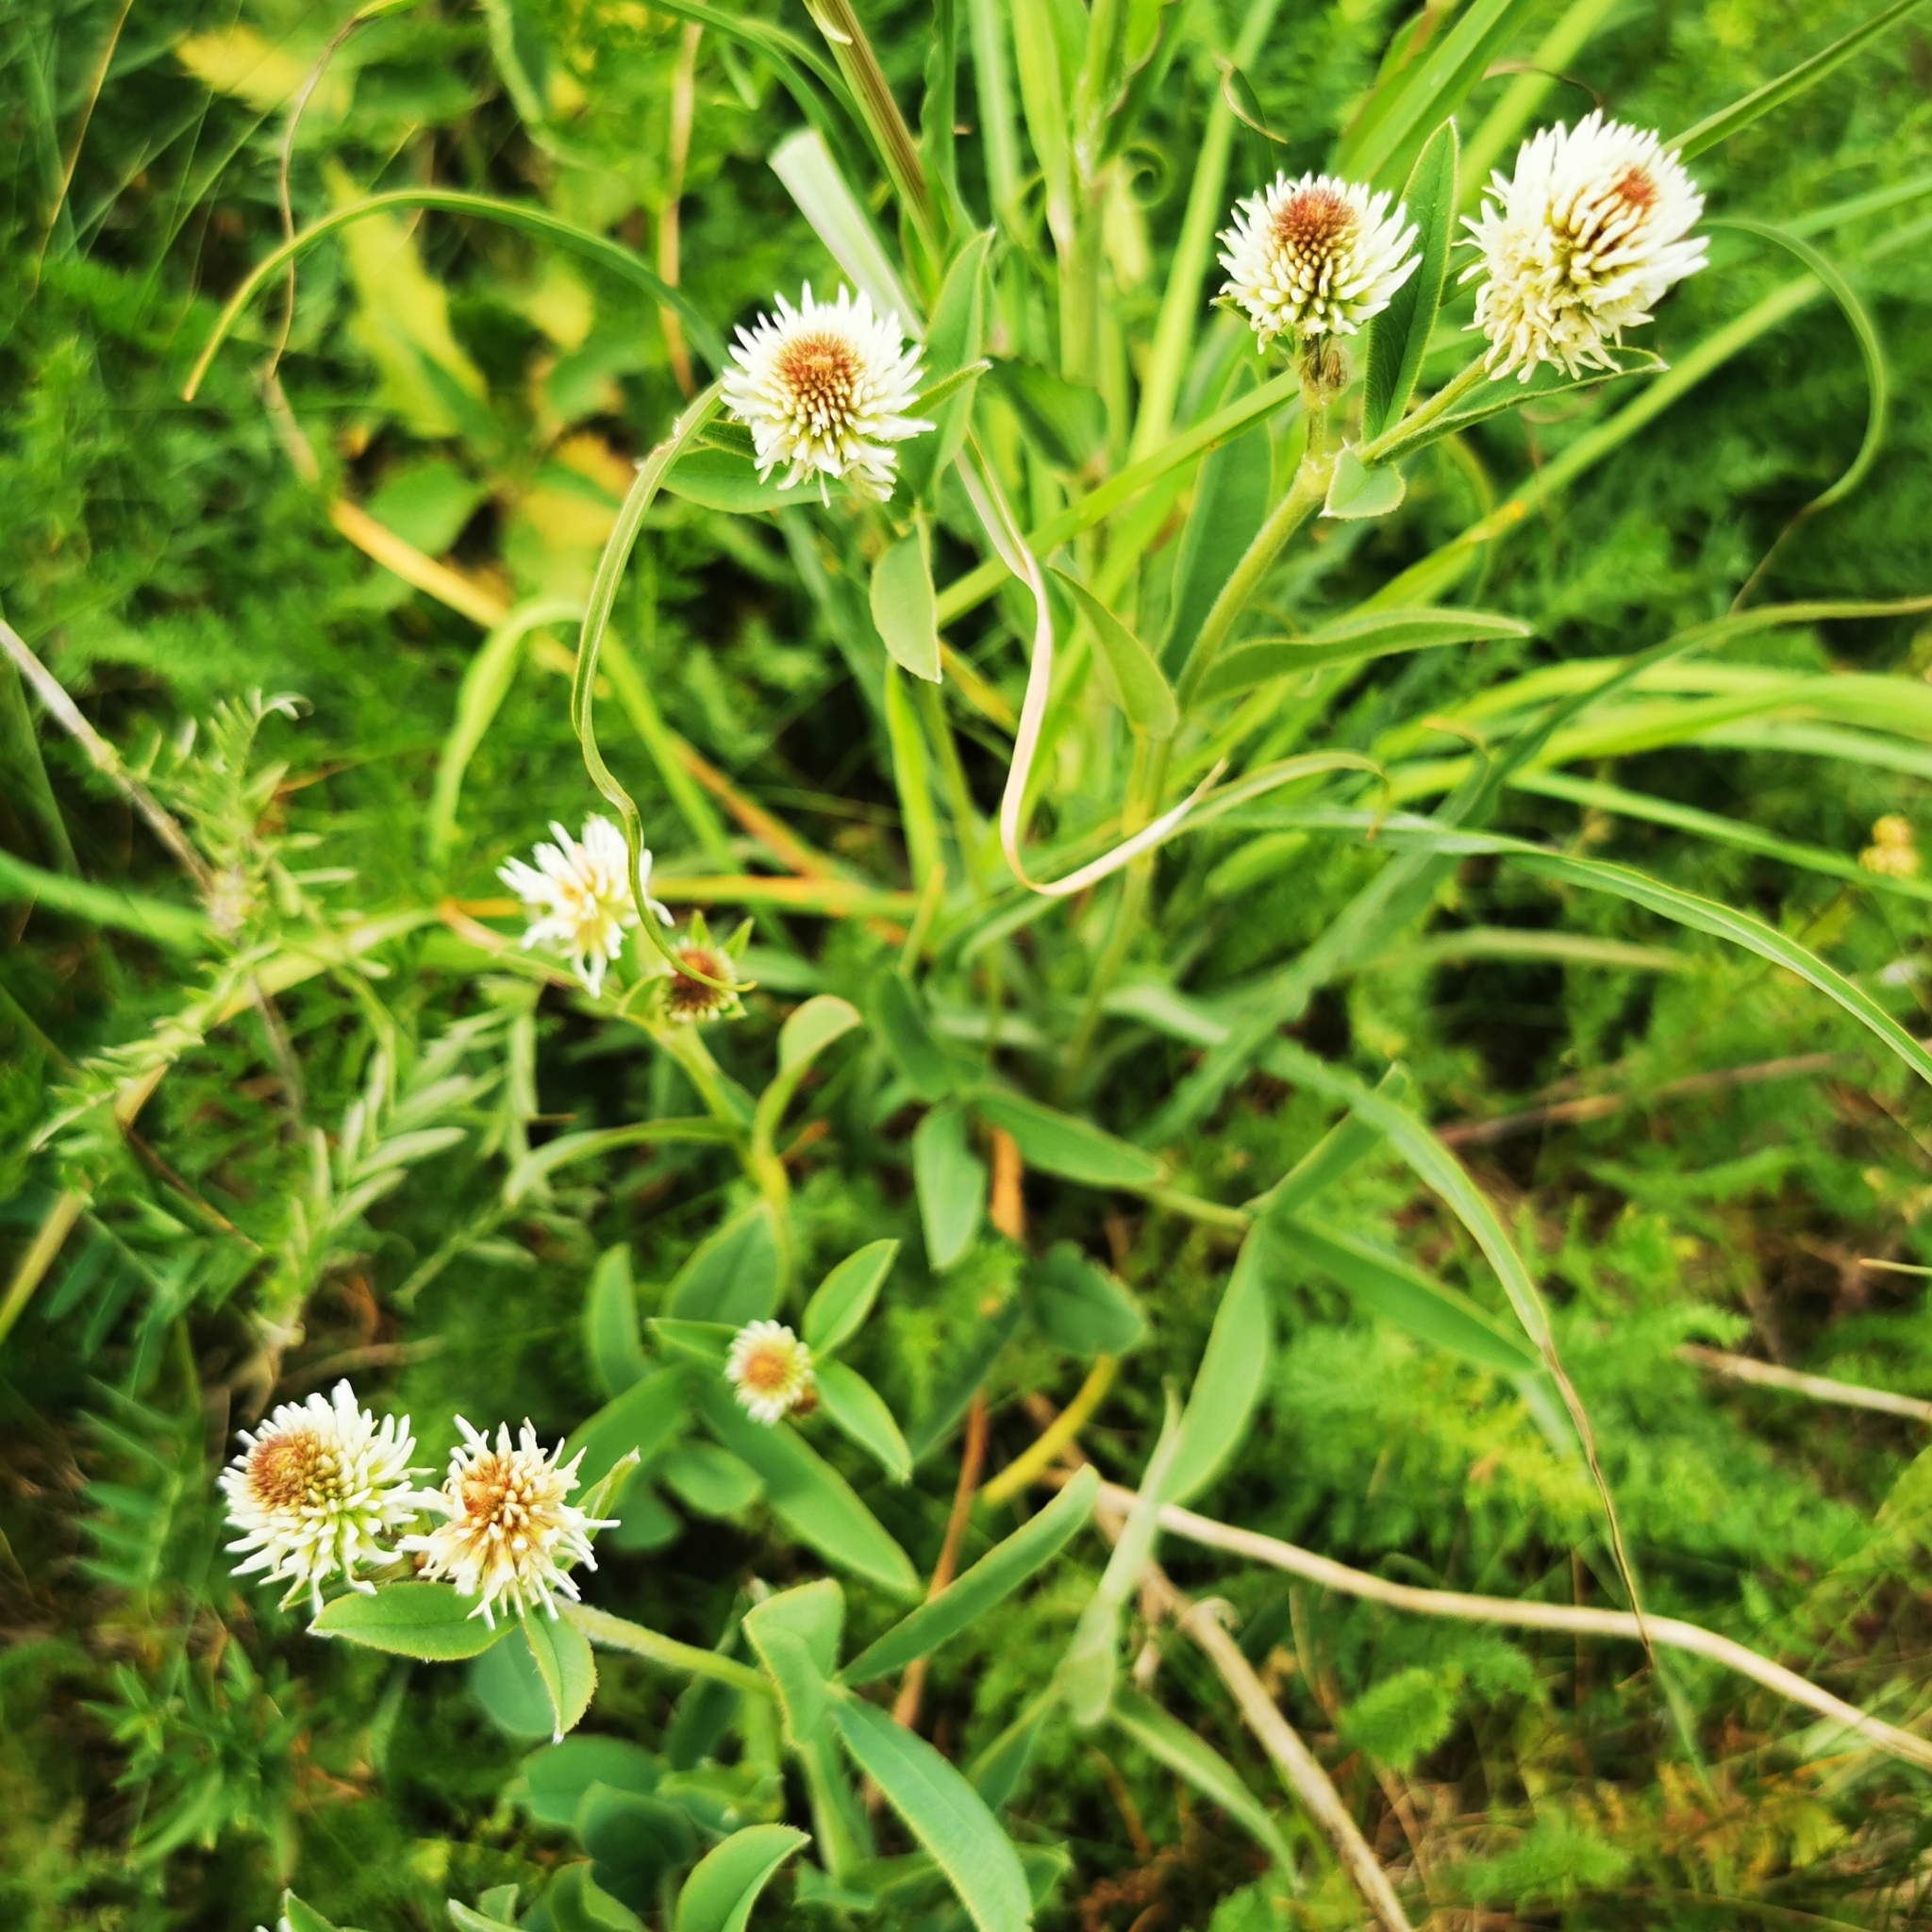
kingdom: Plantae
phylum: Tracheophyta
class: Magnoliopsida
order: Fabales
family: Fabaceae
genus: Trifolium
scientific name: Trifolium montanum
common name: Mountain clover
